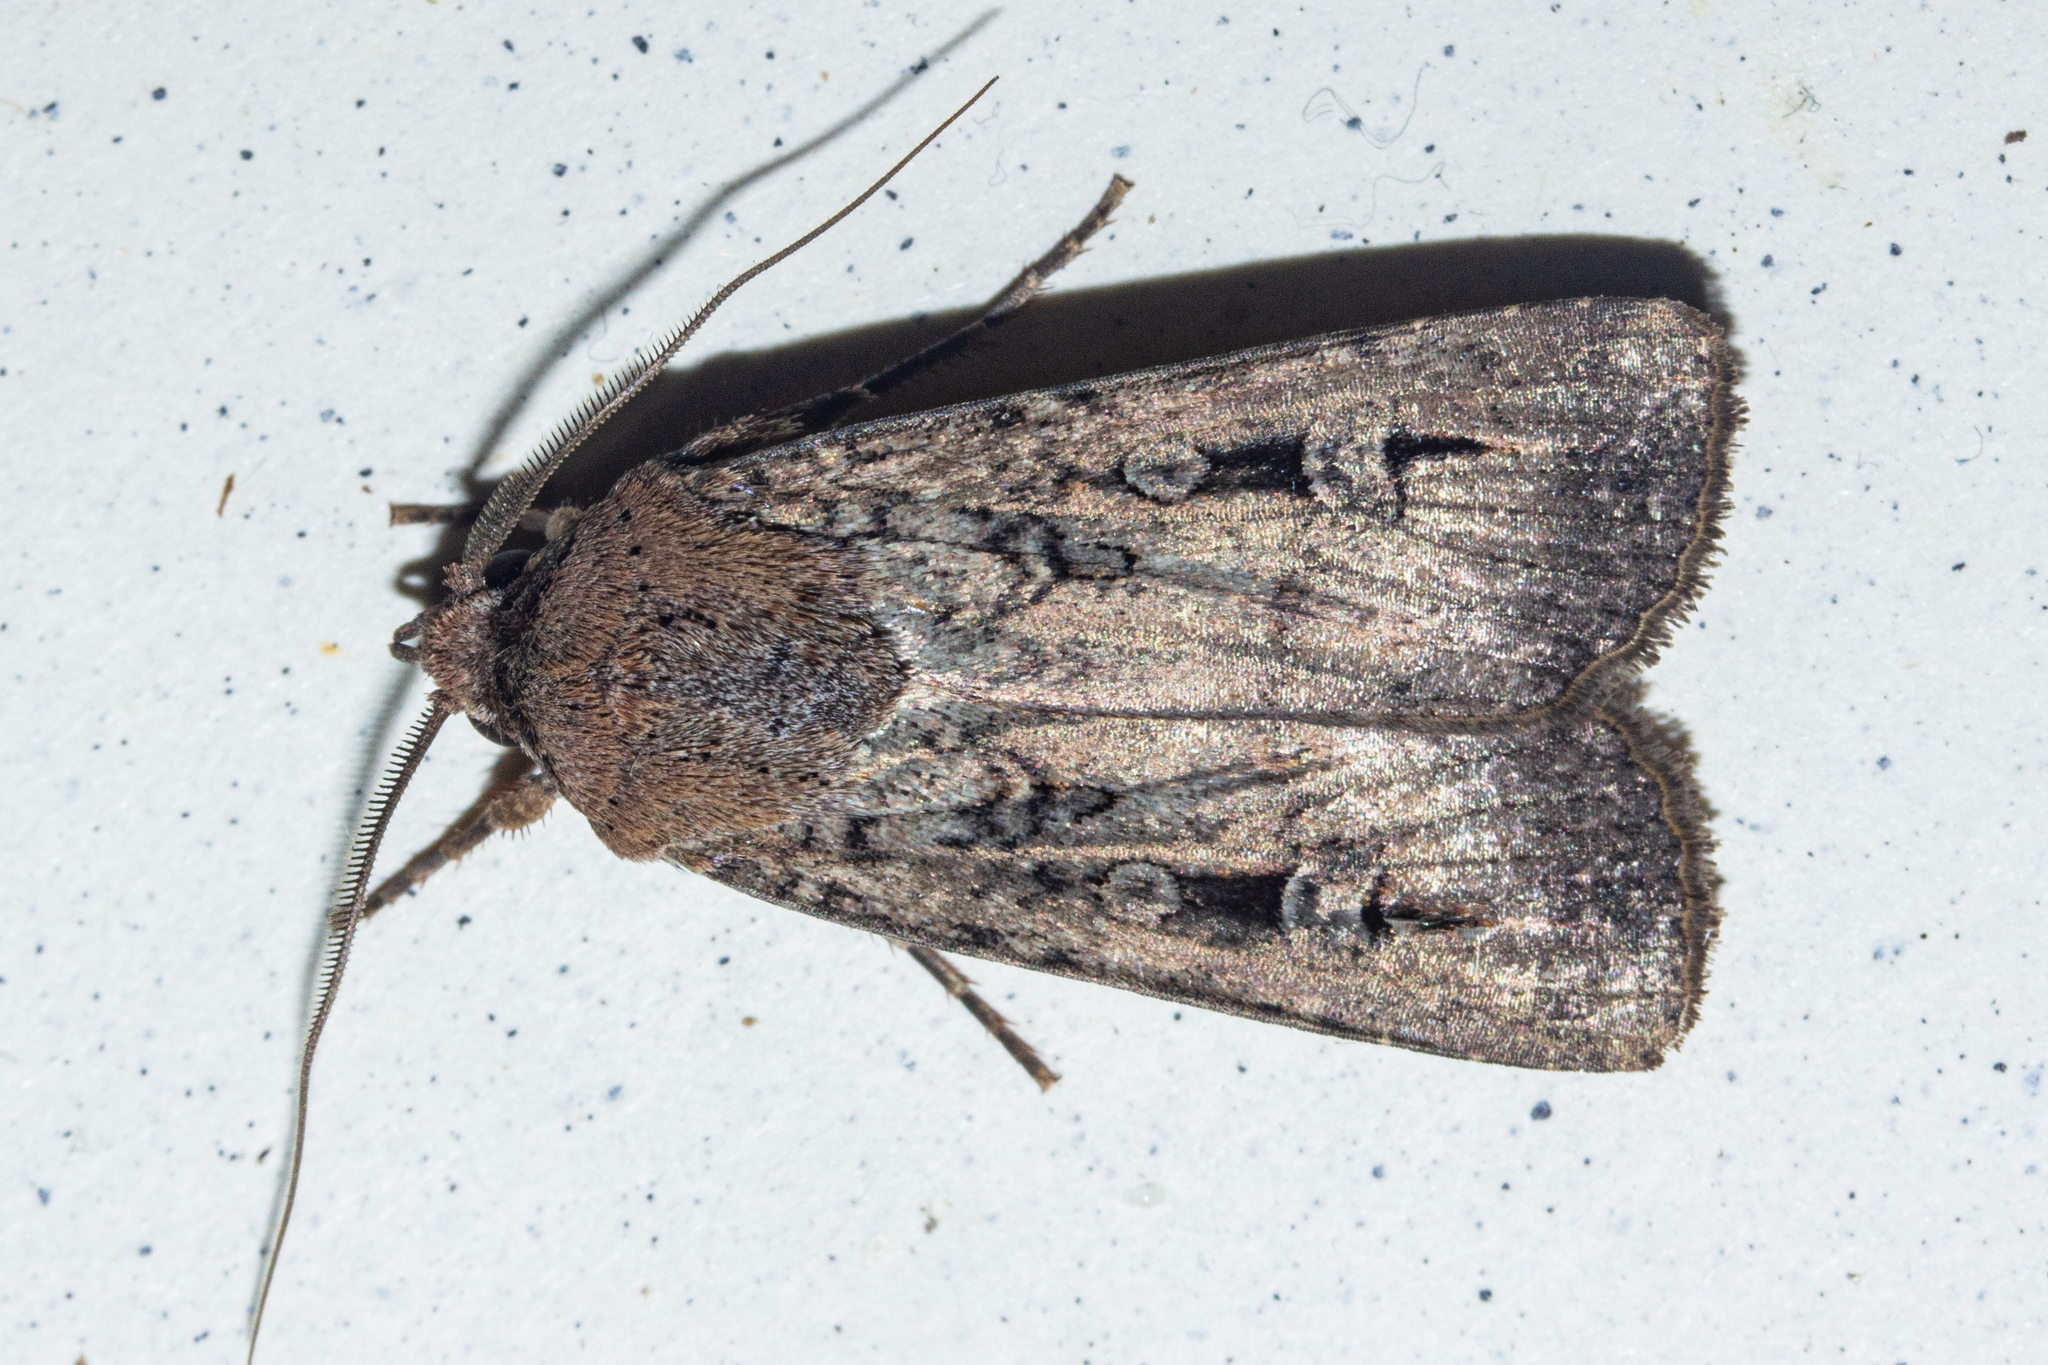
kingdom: Animalia
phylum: Arthropoda
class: Insecta
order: Lepidoptera
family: Noctuidae
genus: Agrotis
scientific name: Agrotis infusa
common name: Bogong moth
